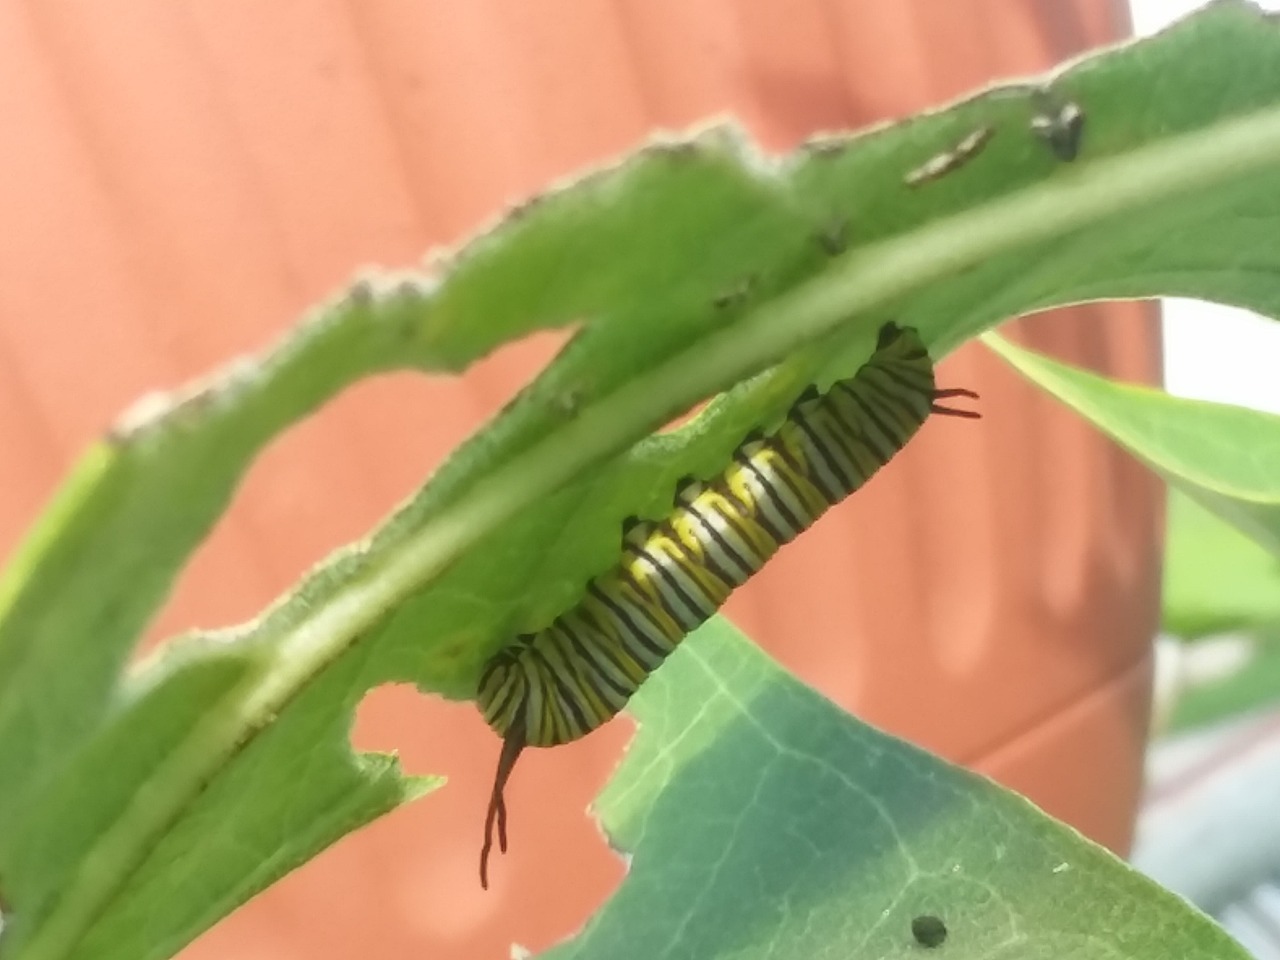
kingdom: Animalia
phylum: Arthropoda
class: Insecta
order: Lepidoptera
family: Nymphalidae
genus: Danaus
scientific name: Danaus plexippus
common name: Monarch
